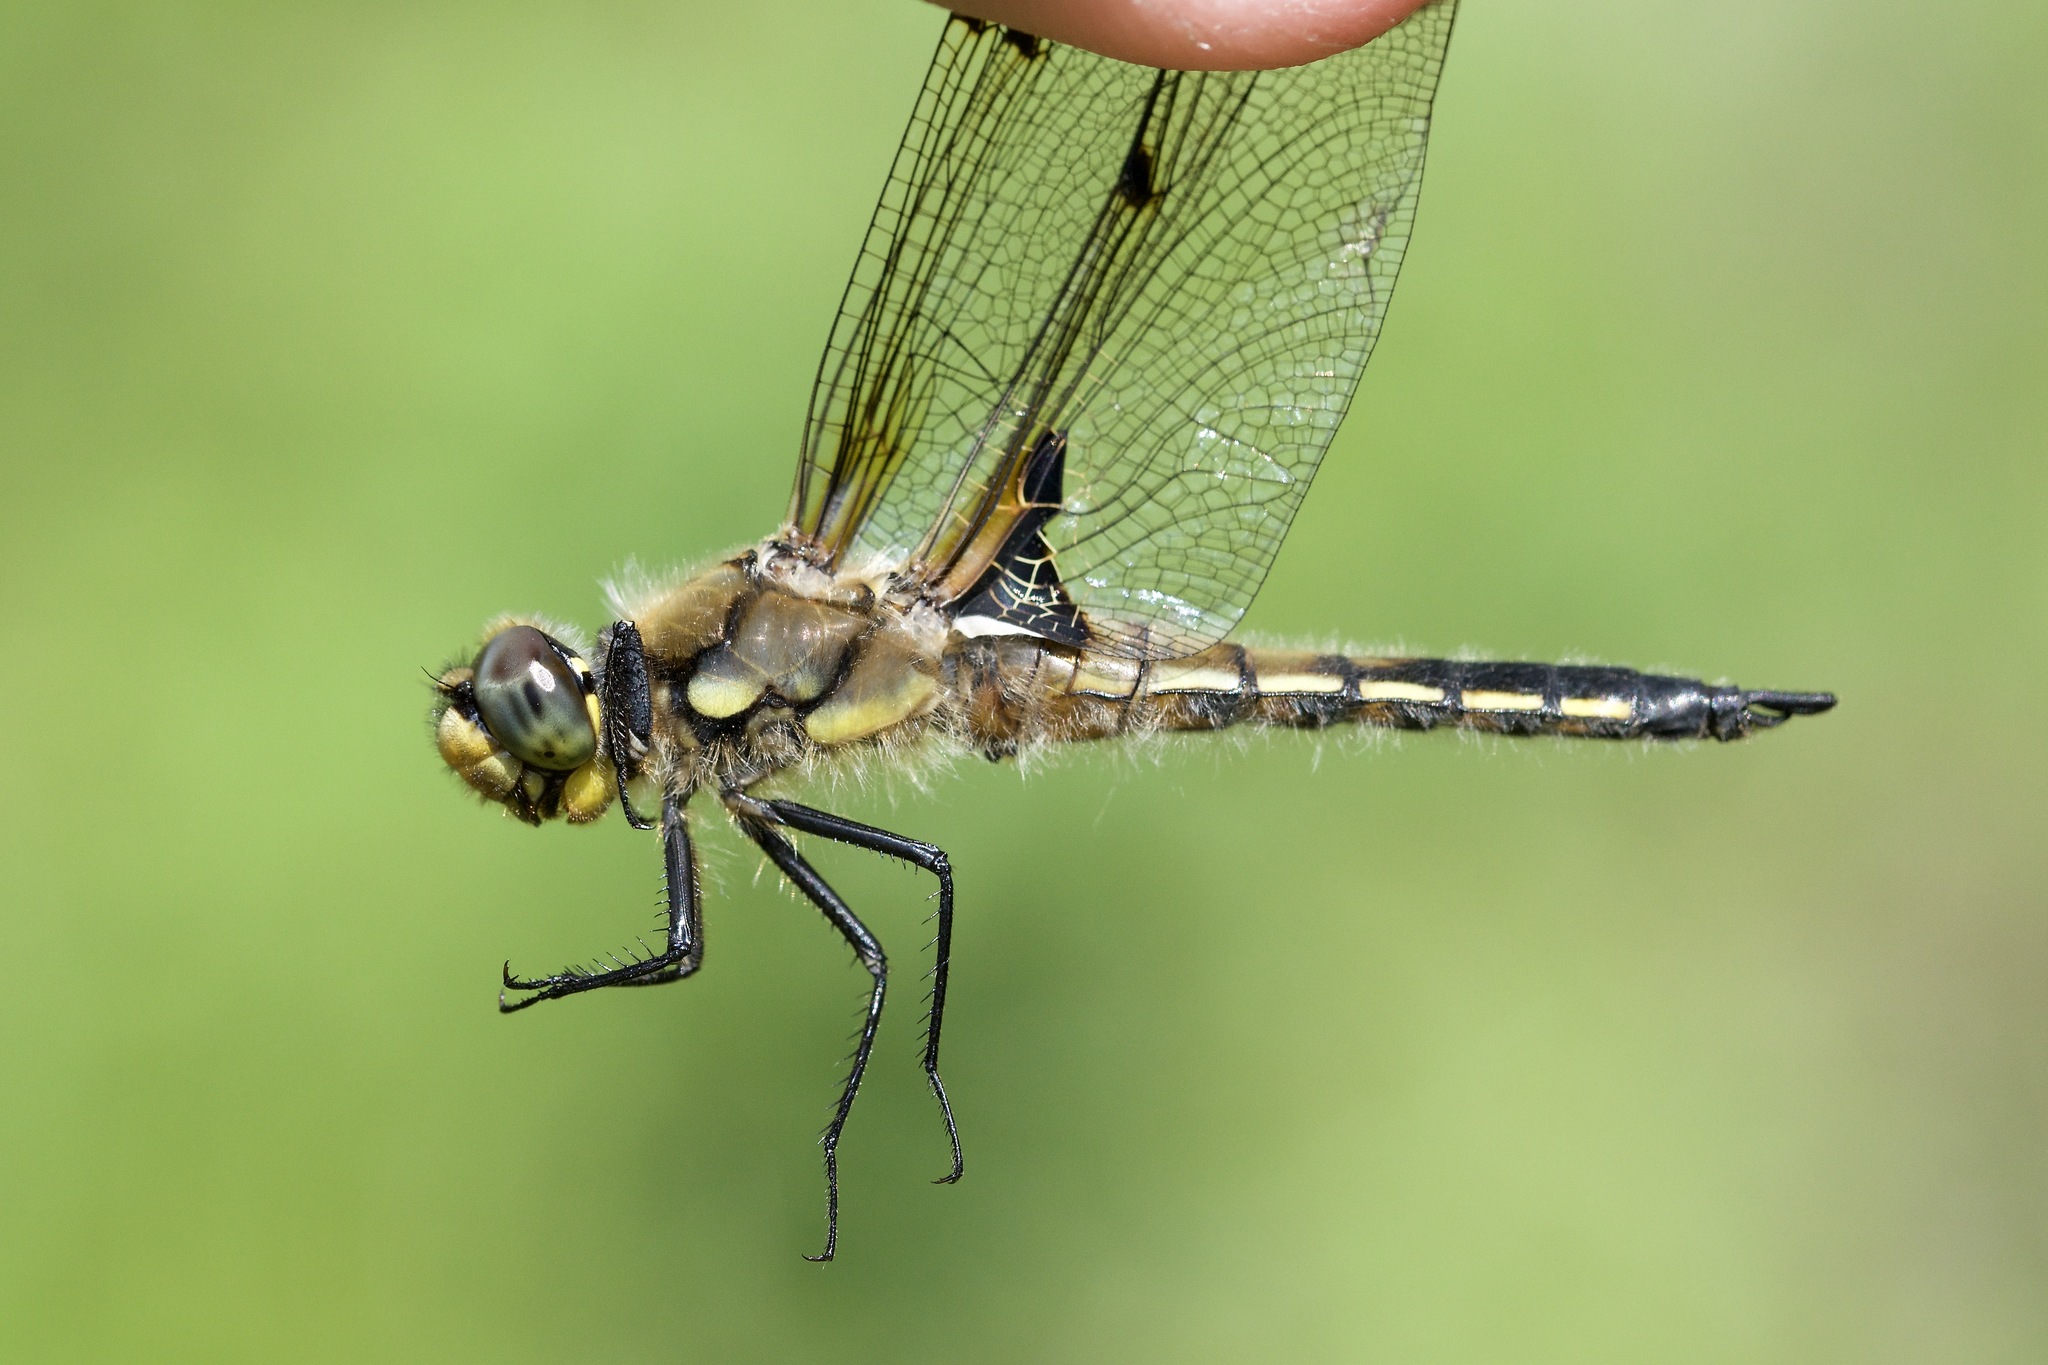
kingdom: Animalia
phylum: Arthropoda
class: Insecta
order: Odonata
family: Libellulidae
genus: Libellula
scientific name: Libellula quadrimaculata
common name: Four-spotted chaser
